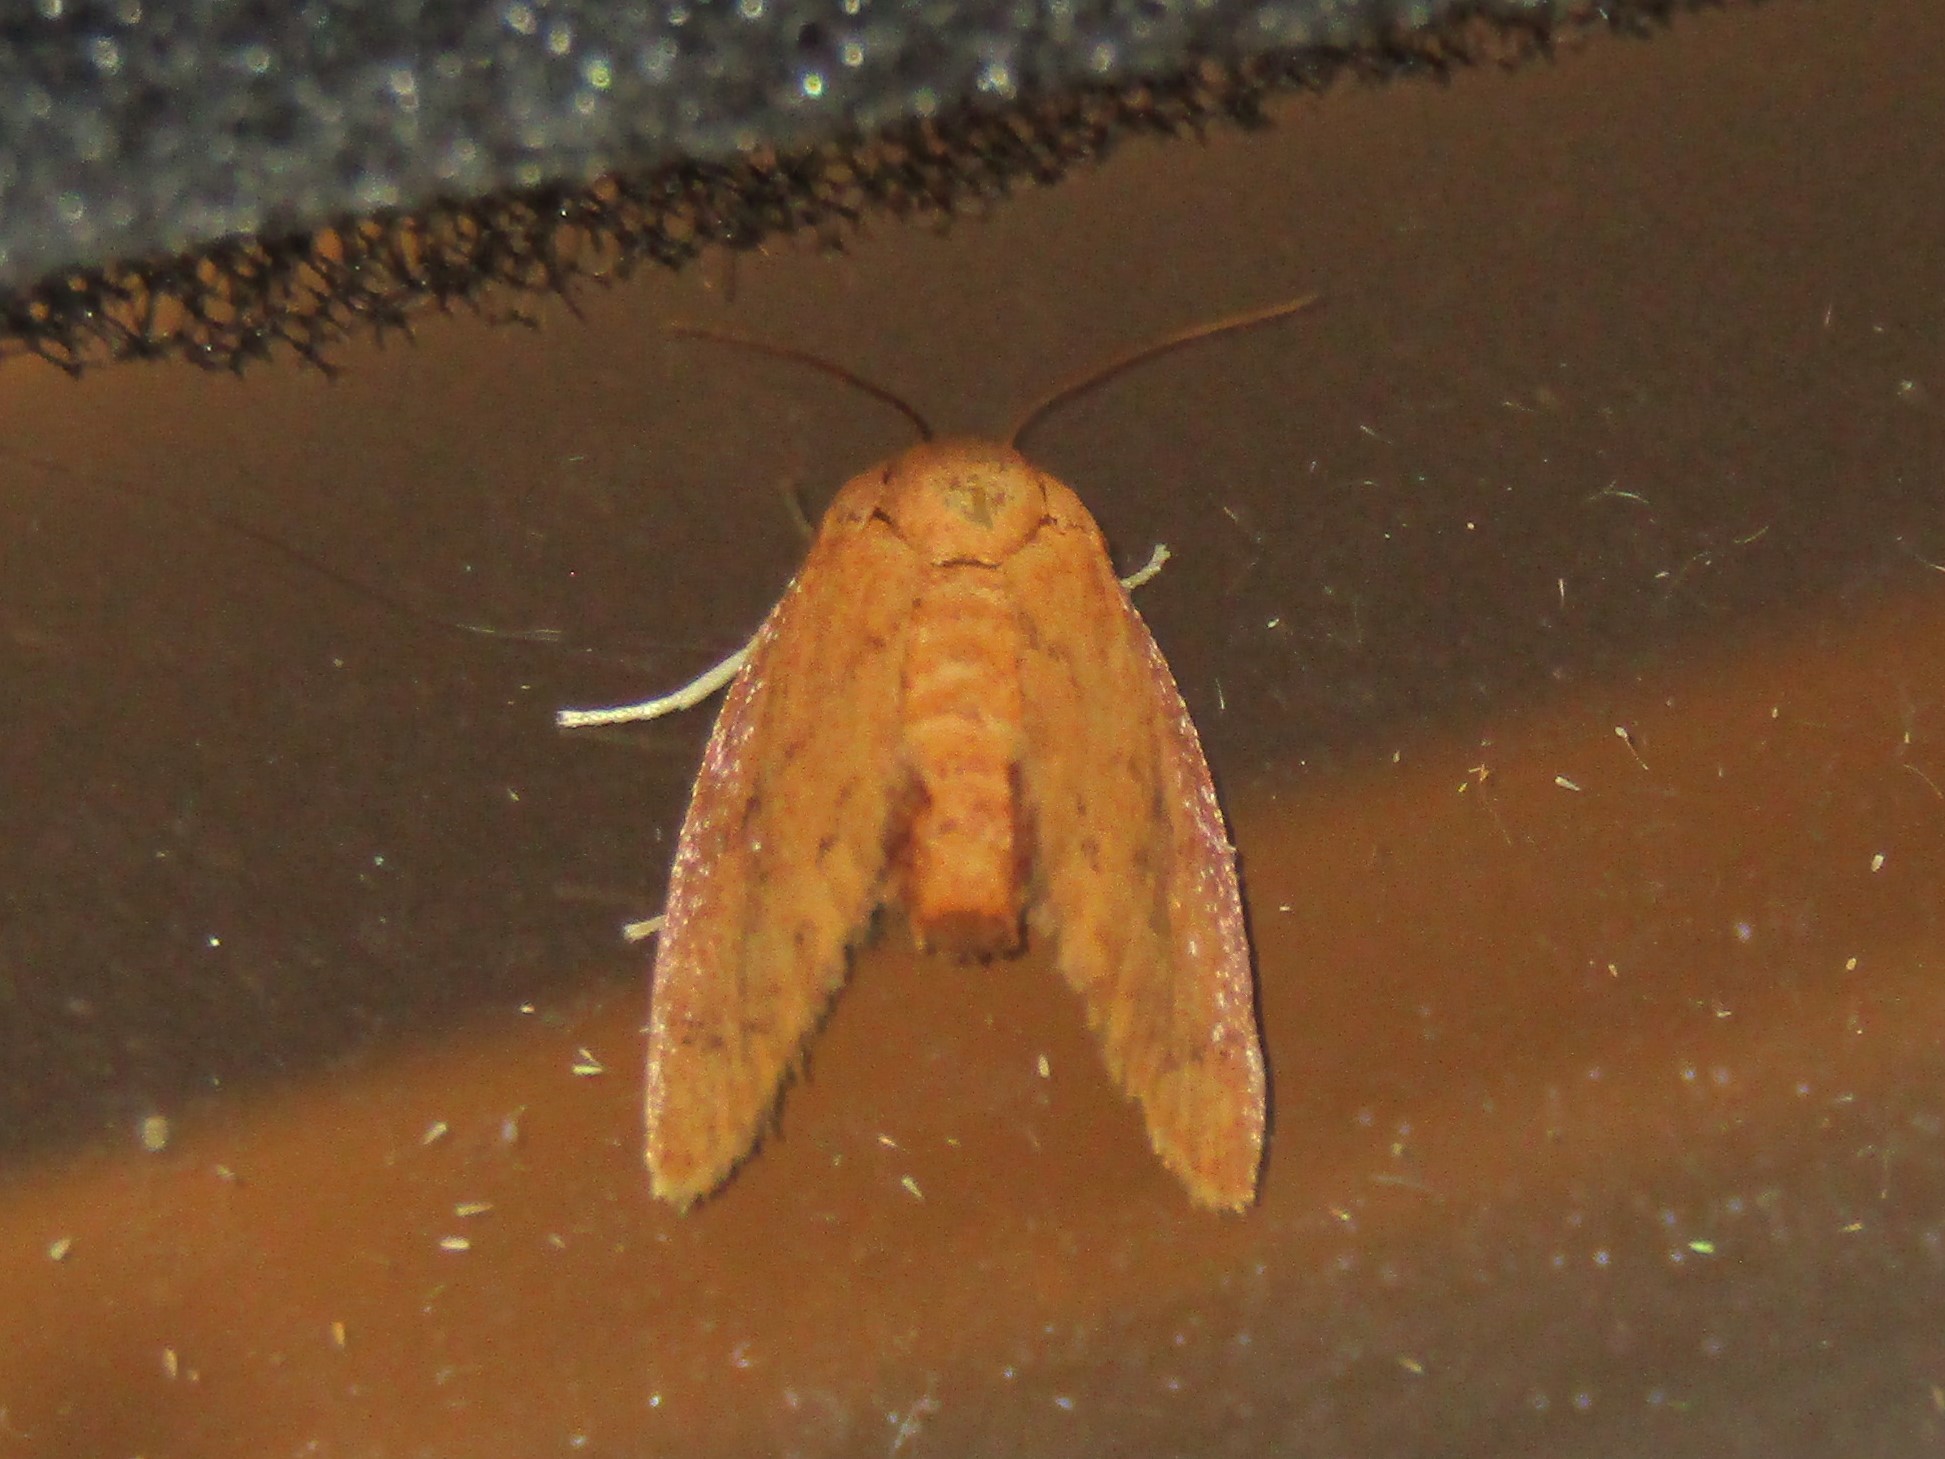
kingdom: Animalia
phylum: Arthropoda
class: Insecta
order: Lepidoptera
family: Limacodidae
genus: Heterogenea
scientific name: Heterogenea shurtleffi
